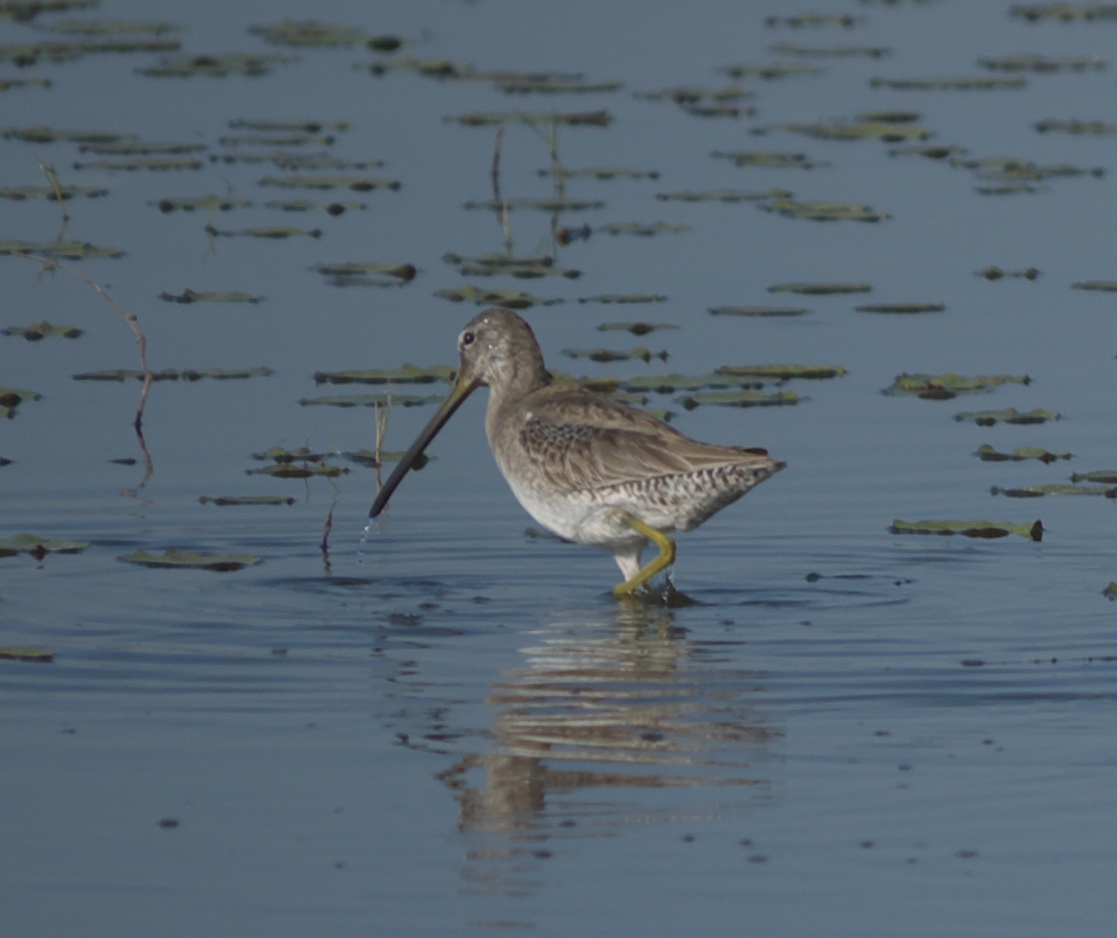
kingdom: Animalia
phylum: Chordata
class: Aves
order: Charadriiformes
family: Scolopacidae
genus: Limnodromus
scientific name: Limnodromus scolopaceus
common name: Long-billed dowitcher
